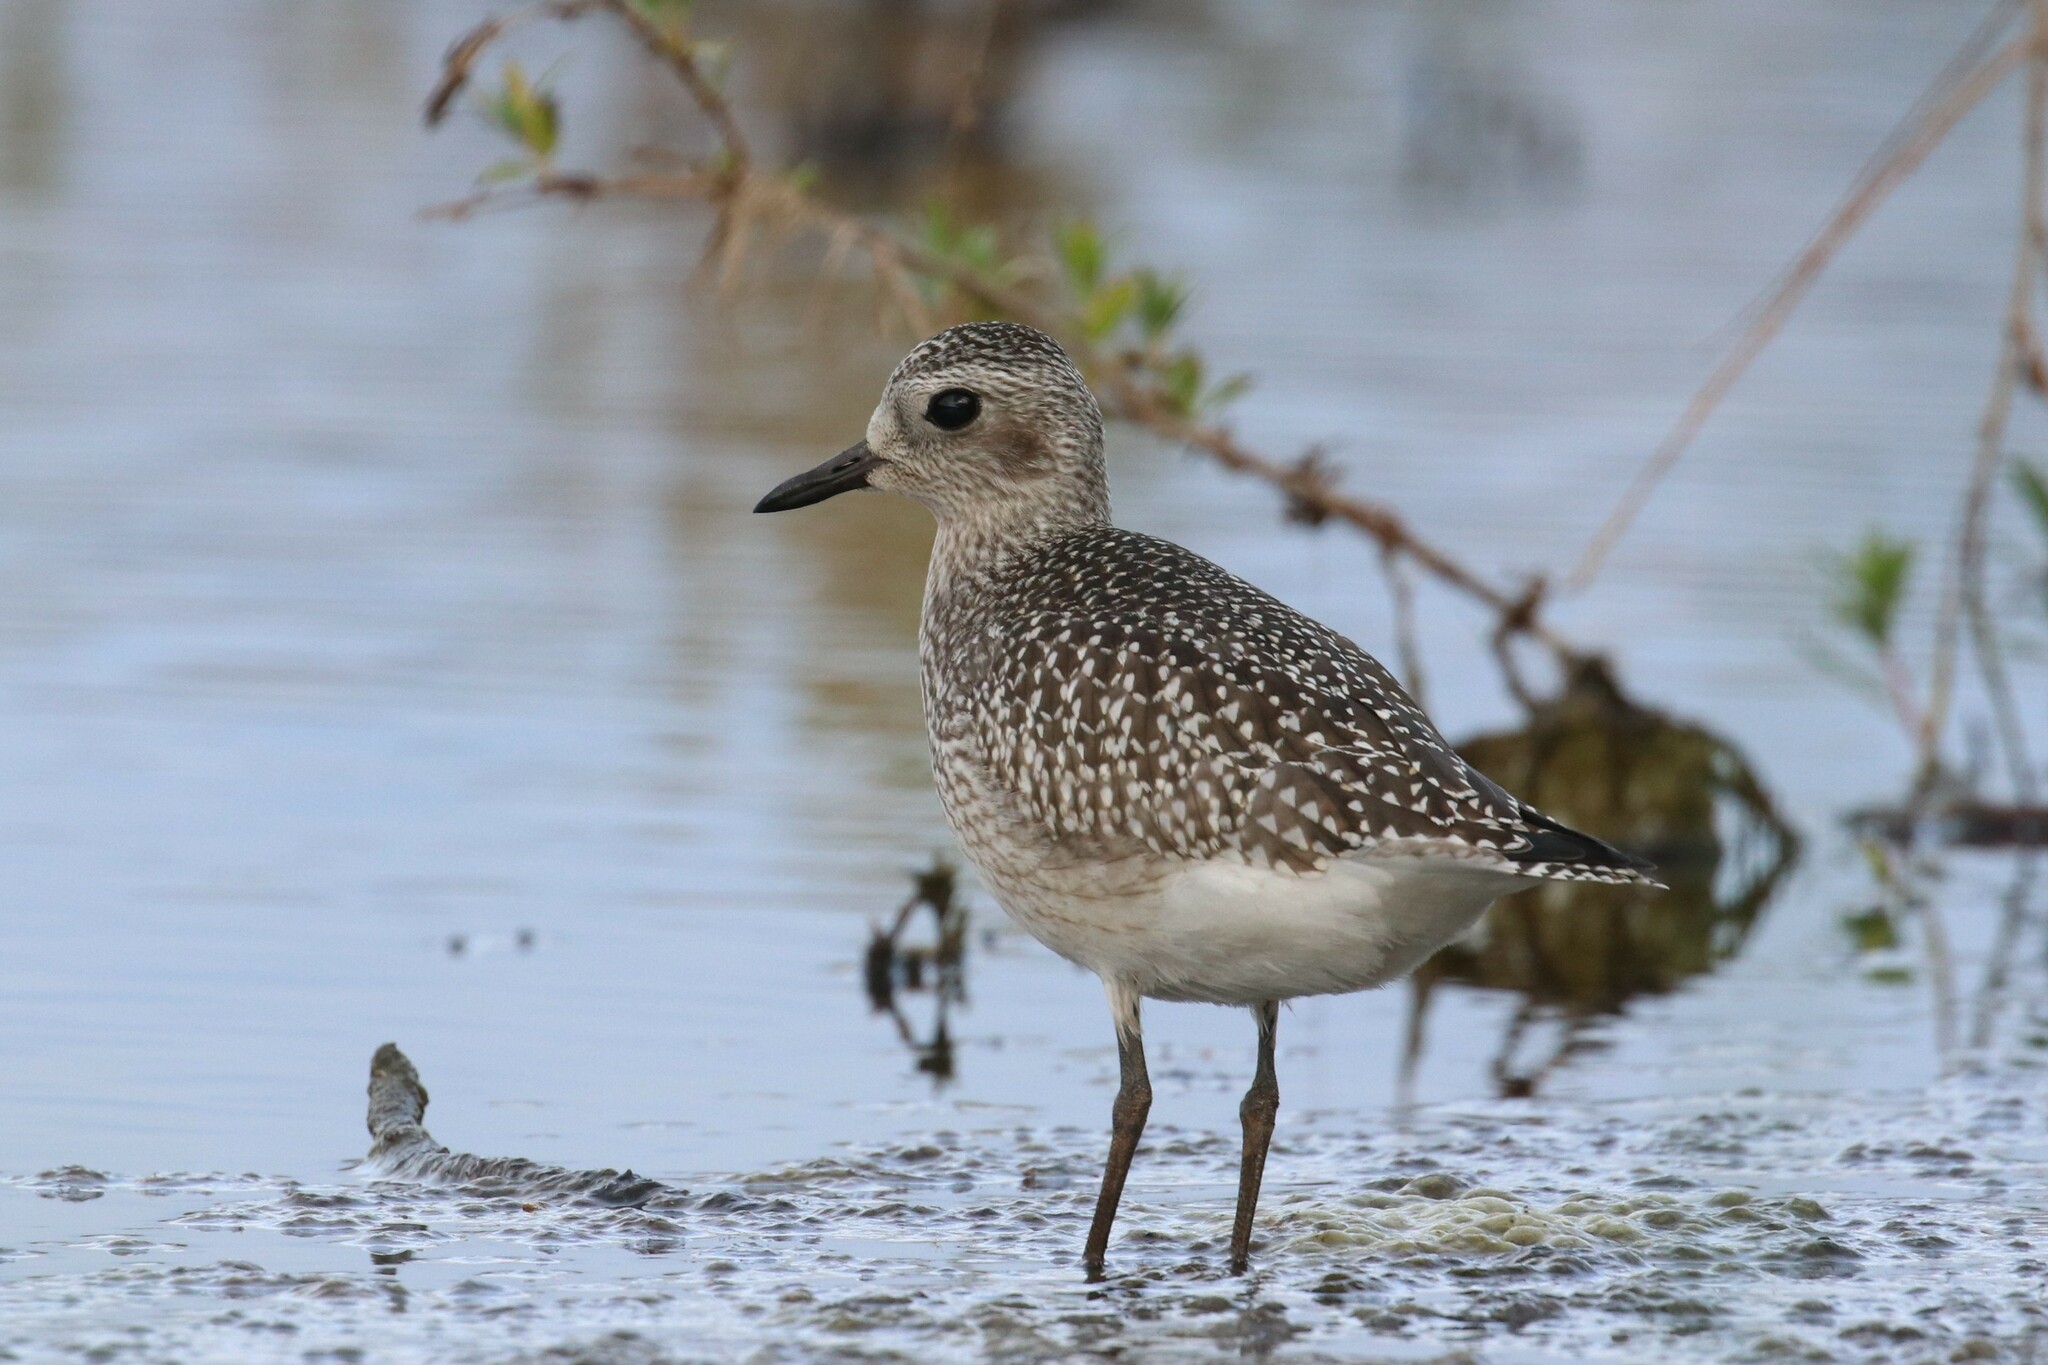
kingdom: Animalia
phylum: Chordata
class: Aves
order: Charadriiformes
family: Charadriidae
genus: Pluvialis
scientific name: Pluvialis squatarola
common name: Grey plover
